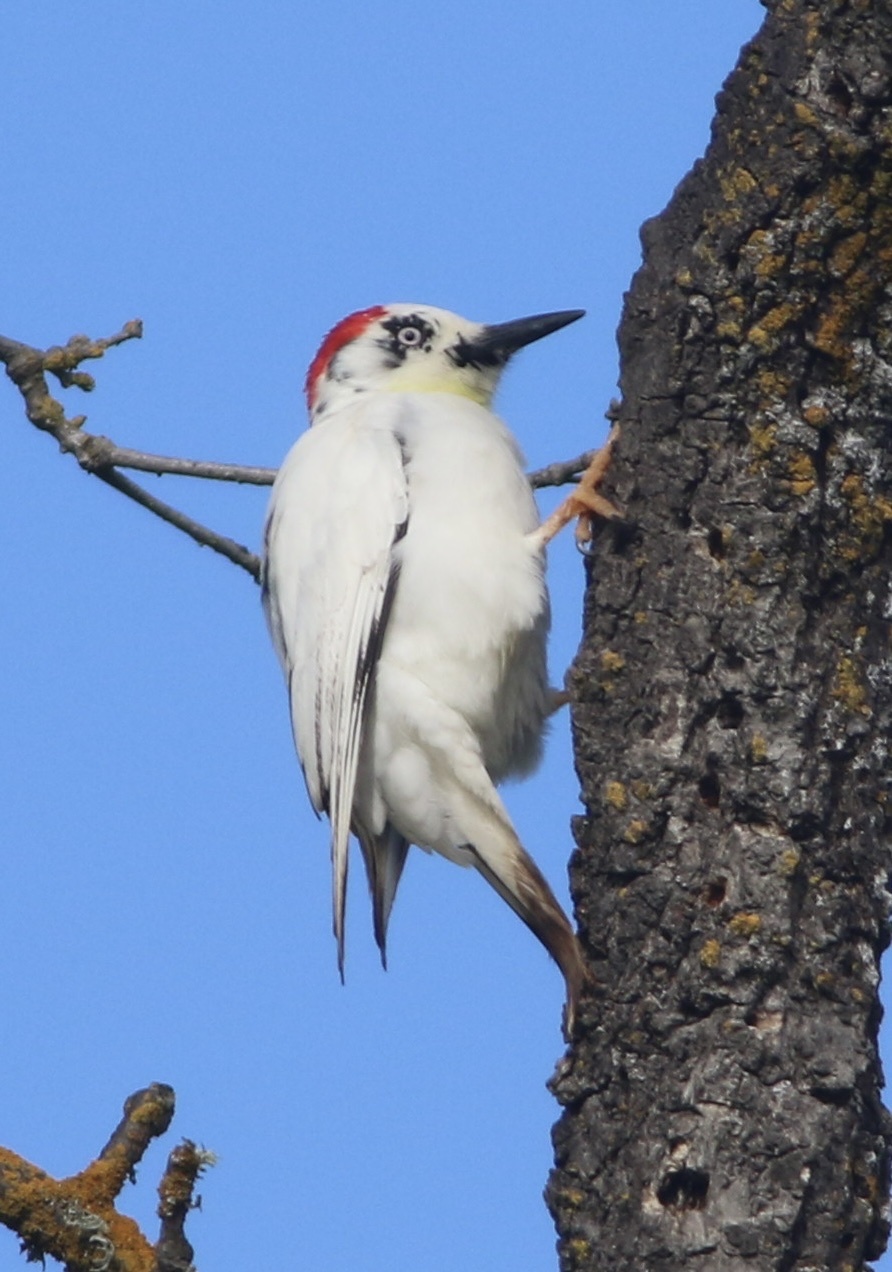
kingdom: Animalia
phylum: Chordata
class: Aves
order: Piciformes
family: Picidae
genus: Melanerpes
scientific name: Melanerpes formicivorus
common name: Acorn woodpecker
